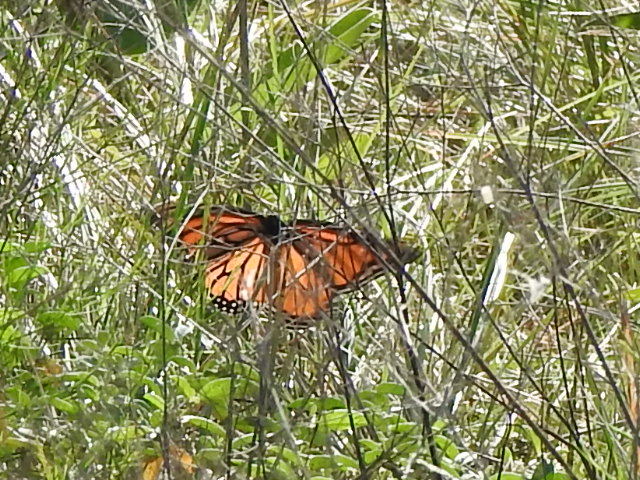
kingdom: Animalia
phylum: Arthropoda
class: Insecta
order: Lepidoptera
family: Nymphalidae
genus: Danaus
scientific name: Danaus plexippus
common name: Monarch
